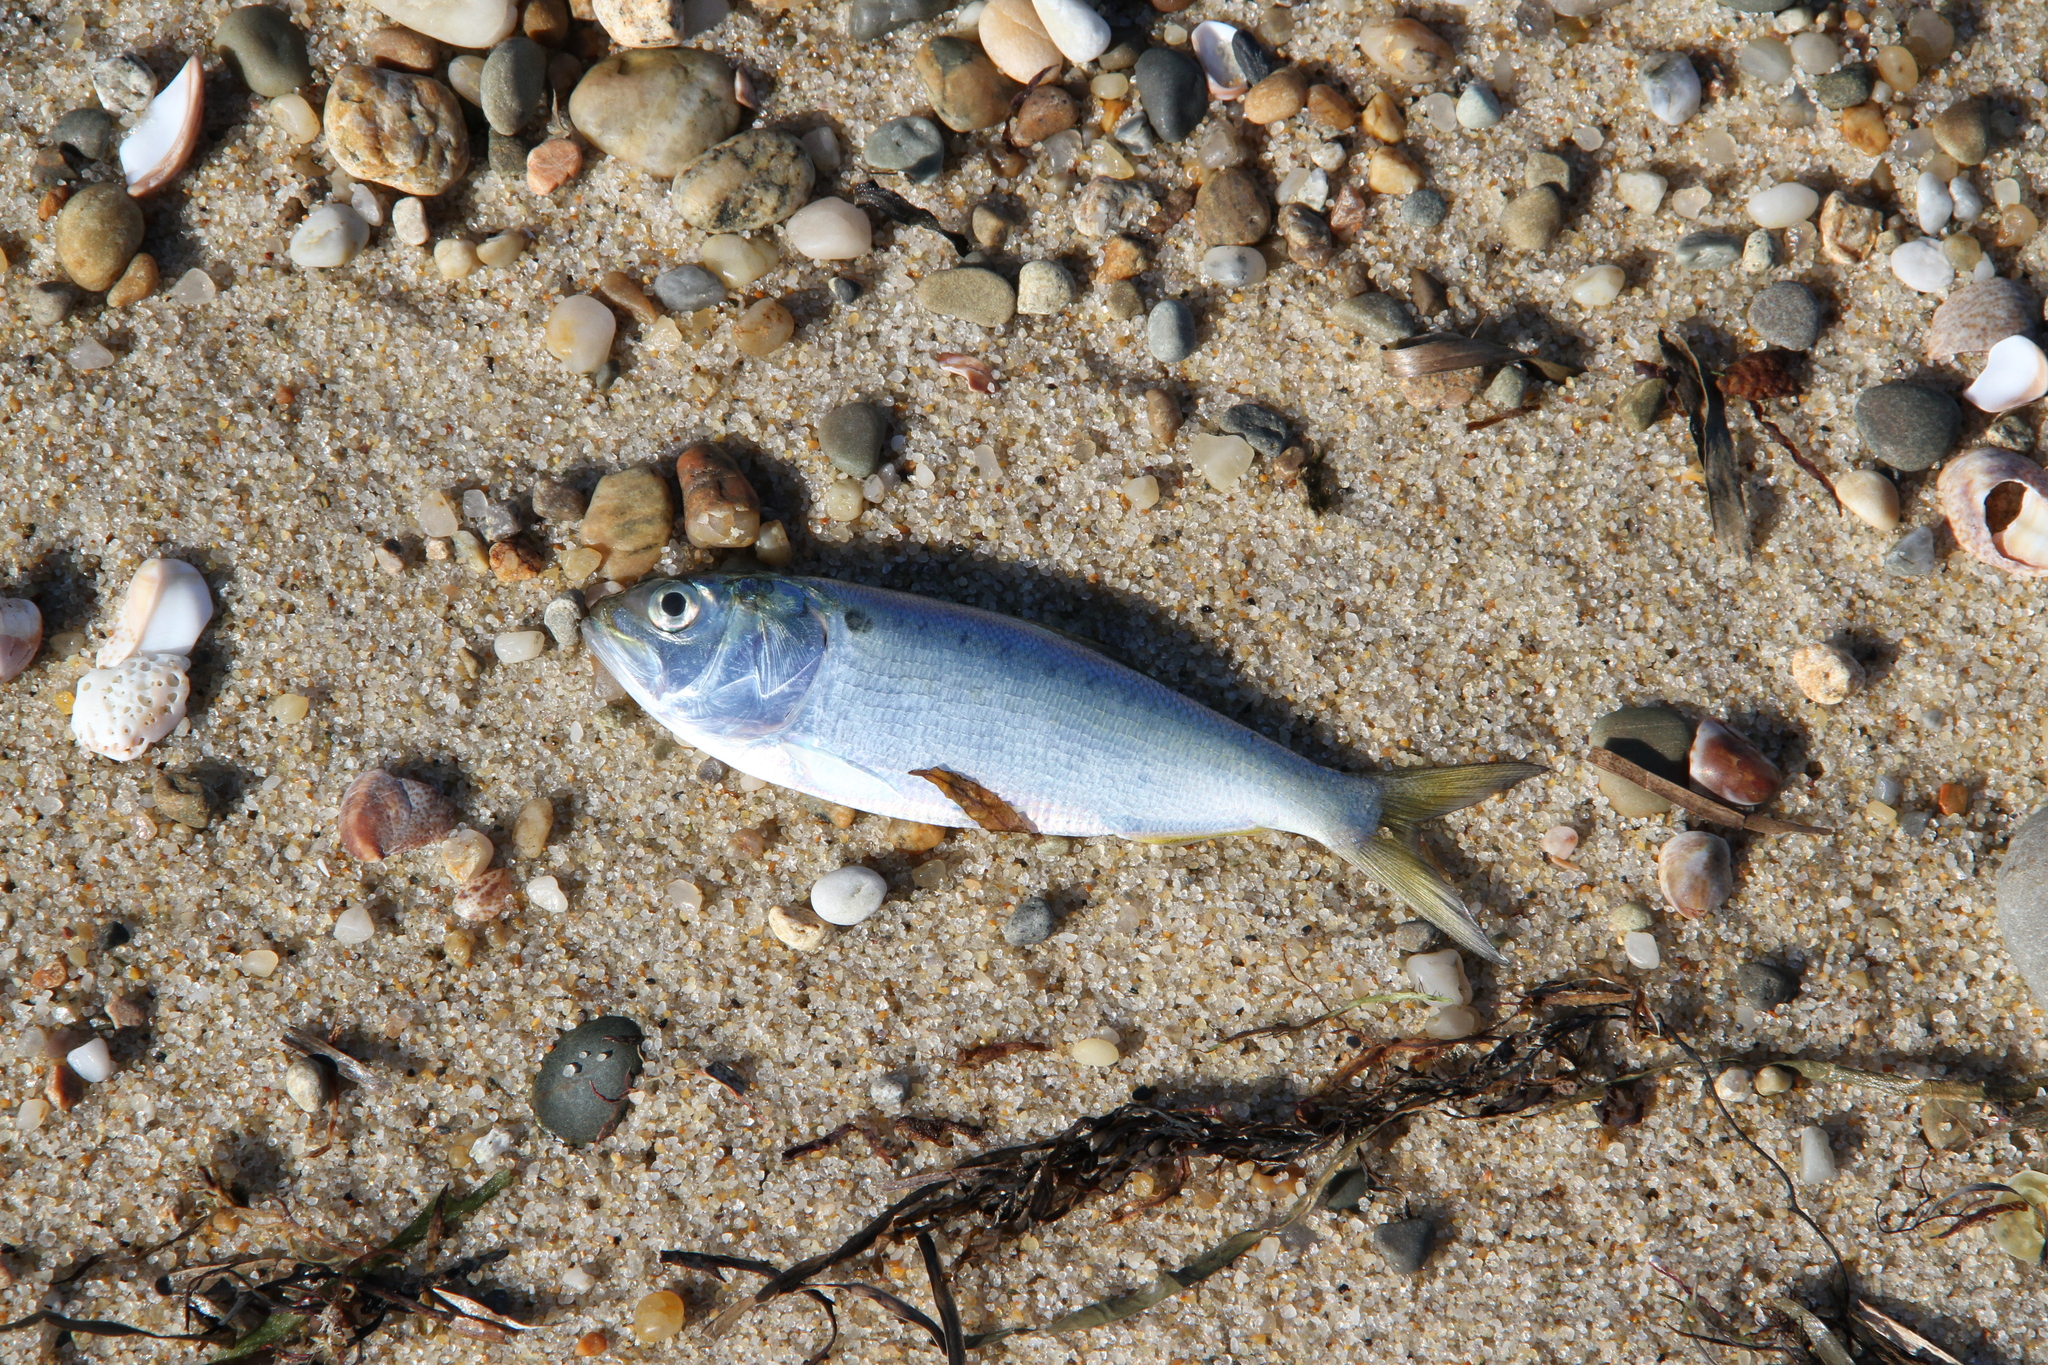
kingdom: Animalia
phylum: Chordata
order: Clupeiformes
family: Clupeidae
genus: Brevoortia
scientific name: Brevoortia tyrannus
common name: Atlantic menhaden
